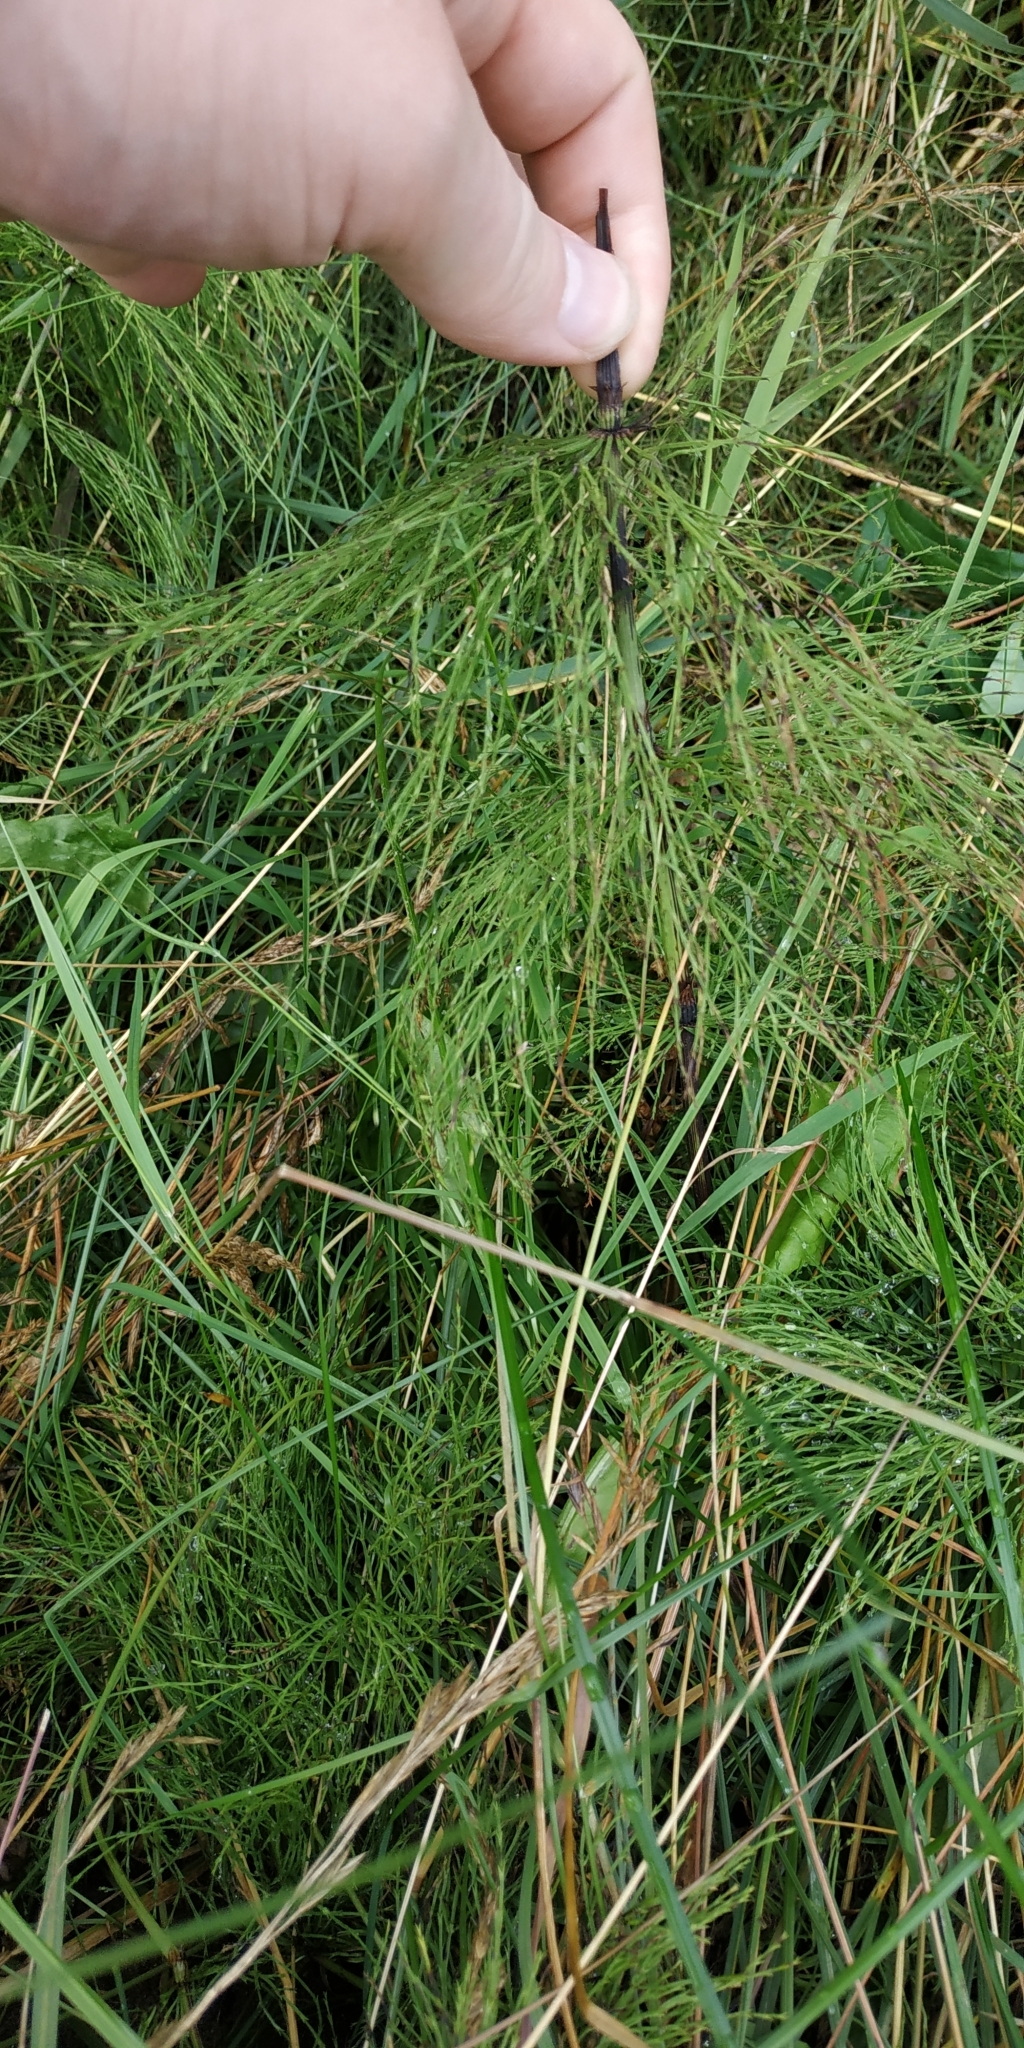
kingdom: Plantae
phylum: Tracheophyta
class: Polypodiopsida
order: Equisetales
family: Equisetaceae
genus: Equisetum
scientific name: Equisetum sylvaticum
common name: Wood horsetail
